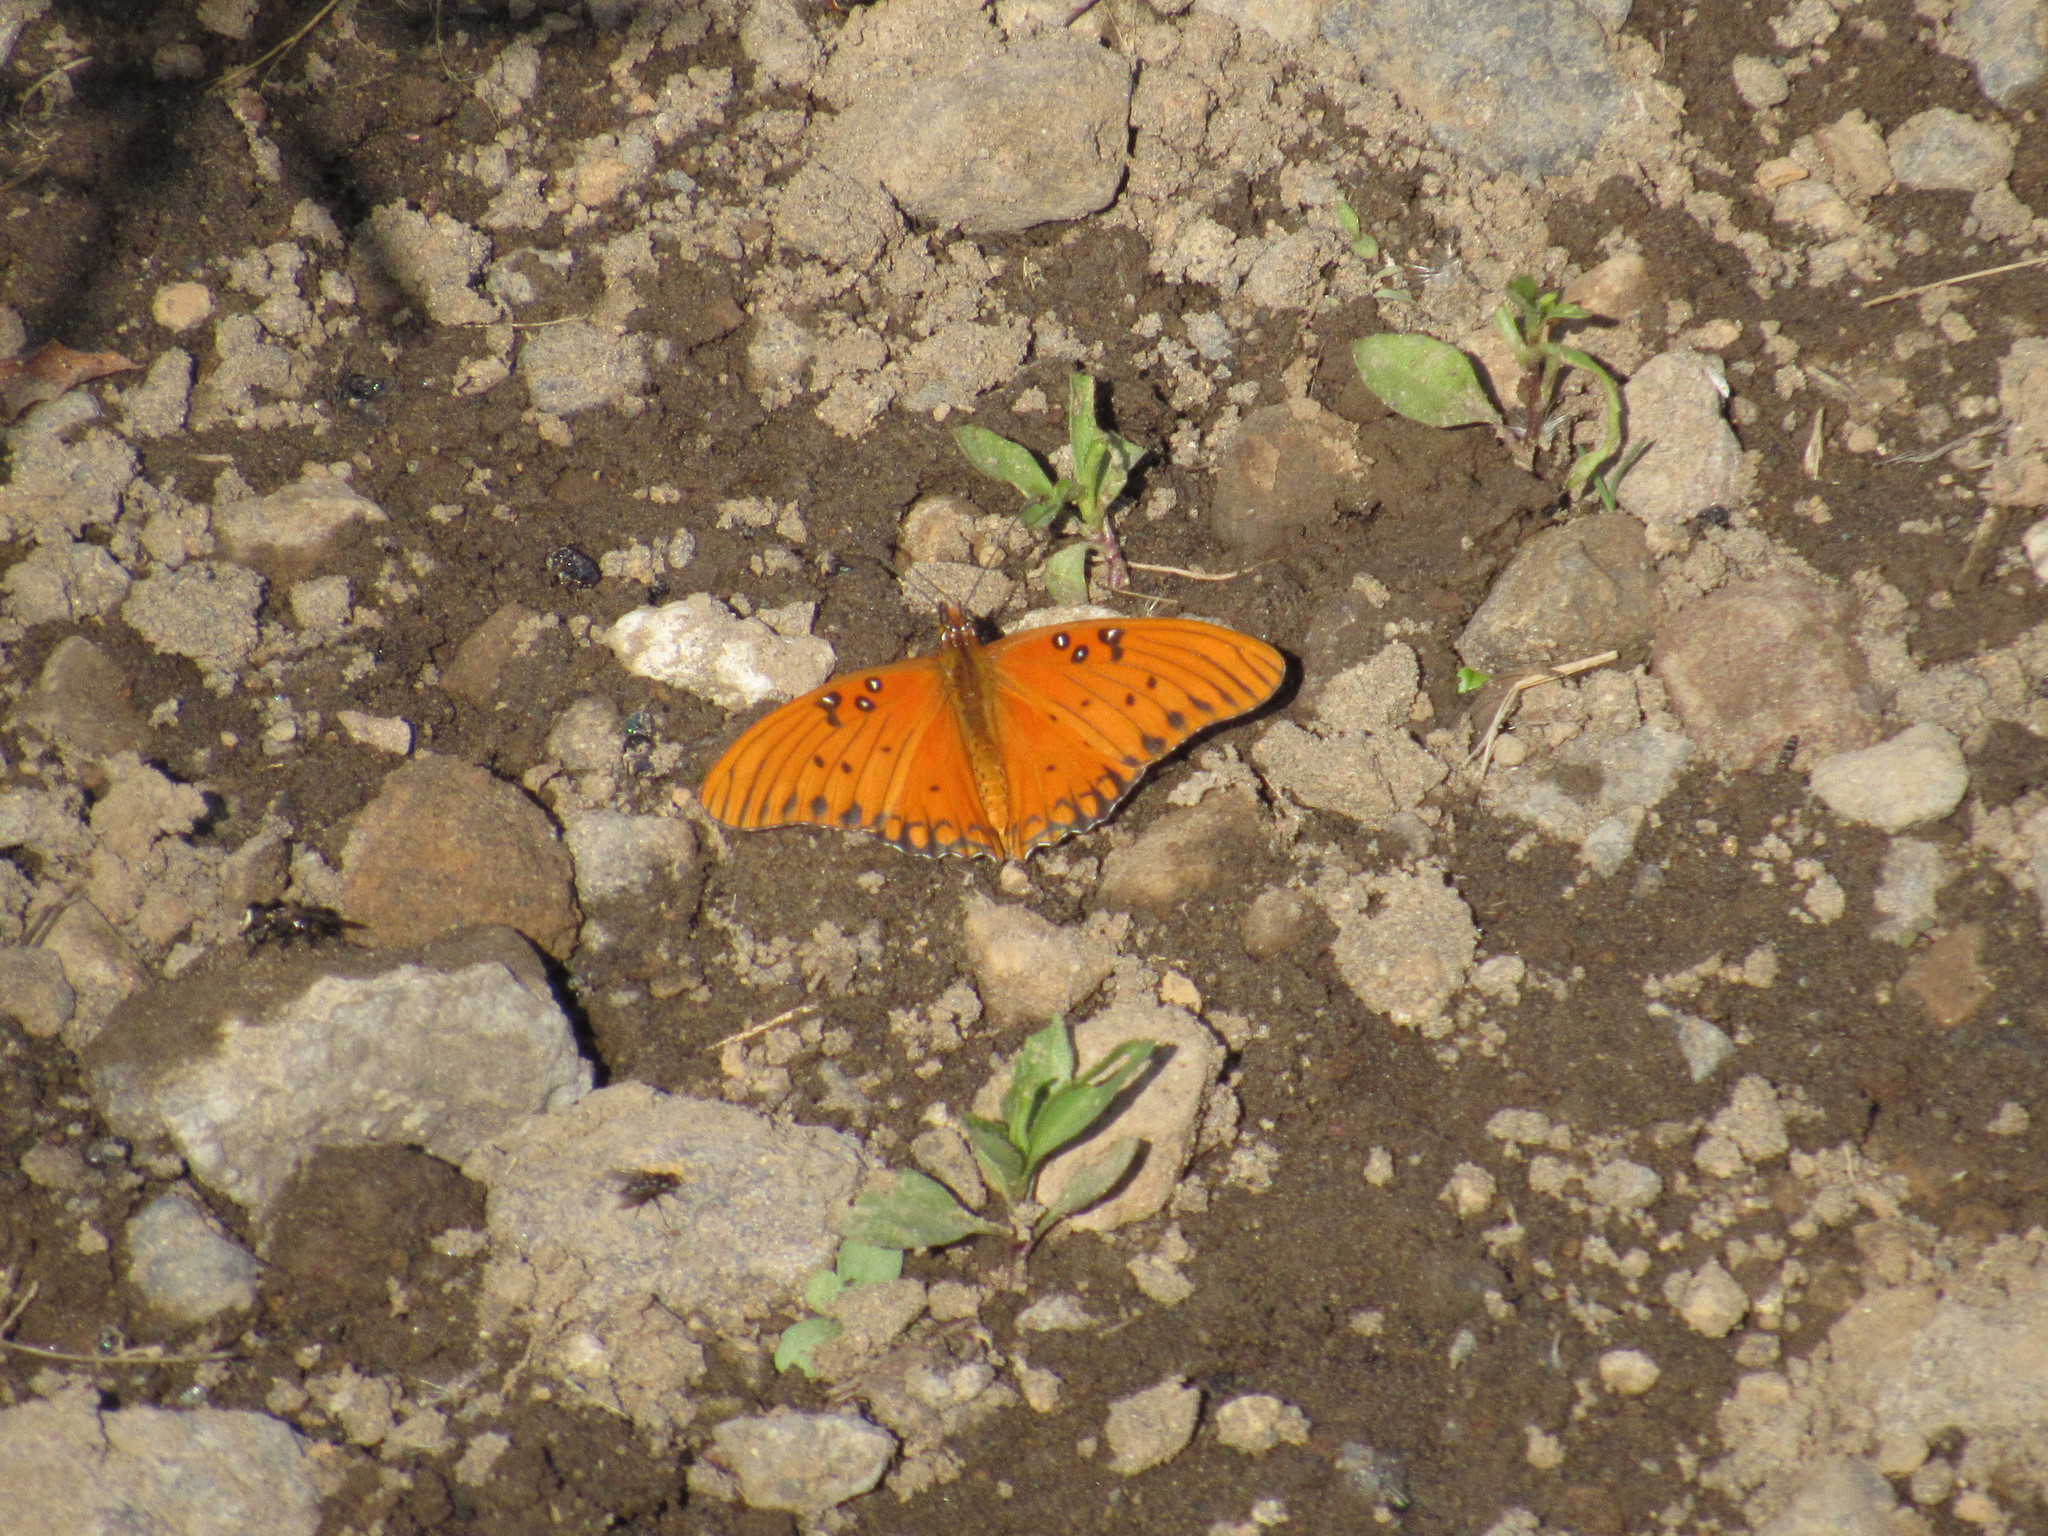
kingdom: Animalia
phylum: Arthropoda
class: Insecta
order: Lepidoptera
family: Nymphalidae
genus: Dione
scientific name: Dione vanillae
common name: Gulf fritillary
